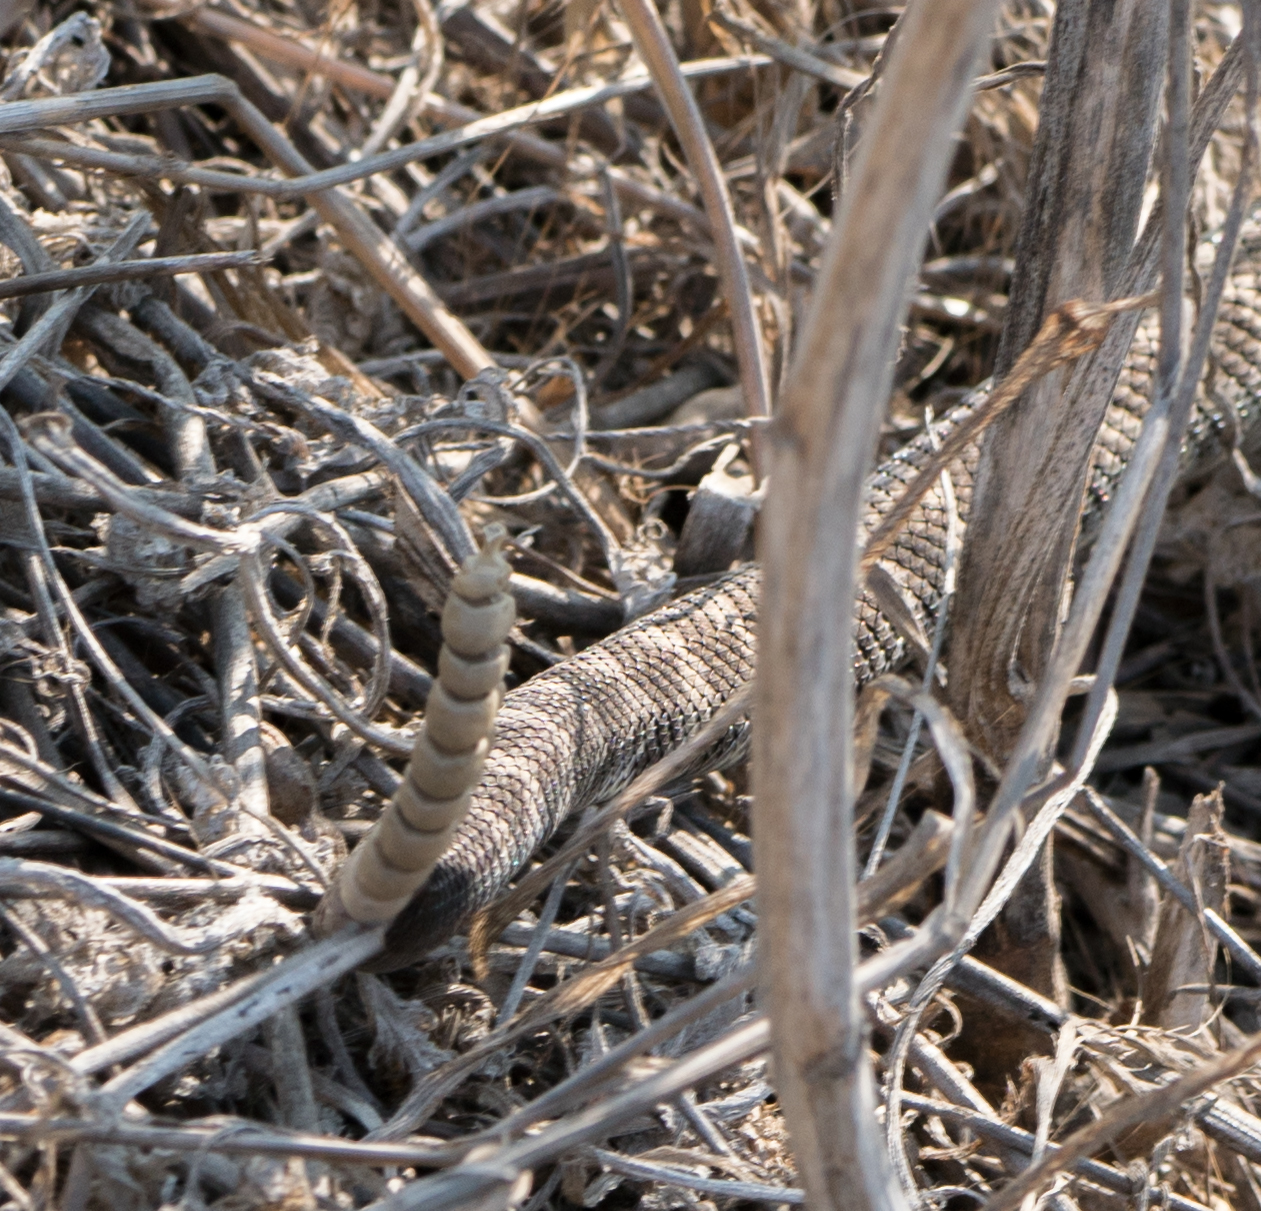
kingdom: Animalia
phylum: Chordata
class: Squamata
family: Viperidae
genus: Crotalus
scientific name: Crotalus oreganus
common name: Abyssus
